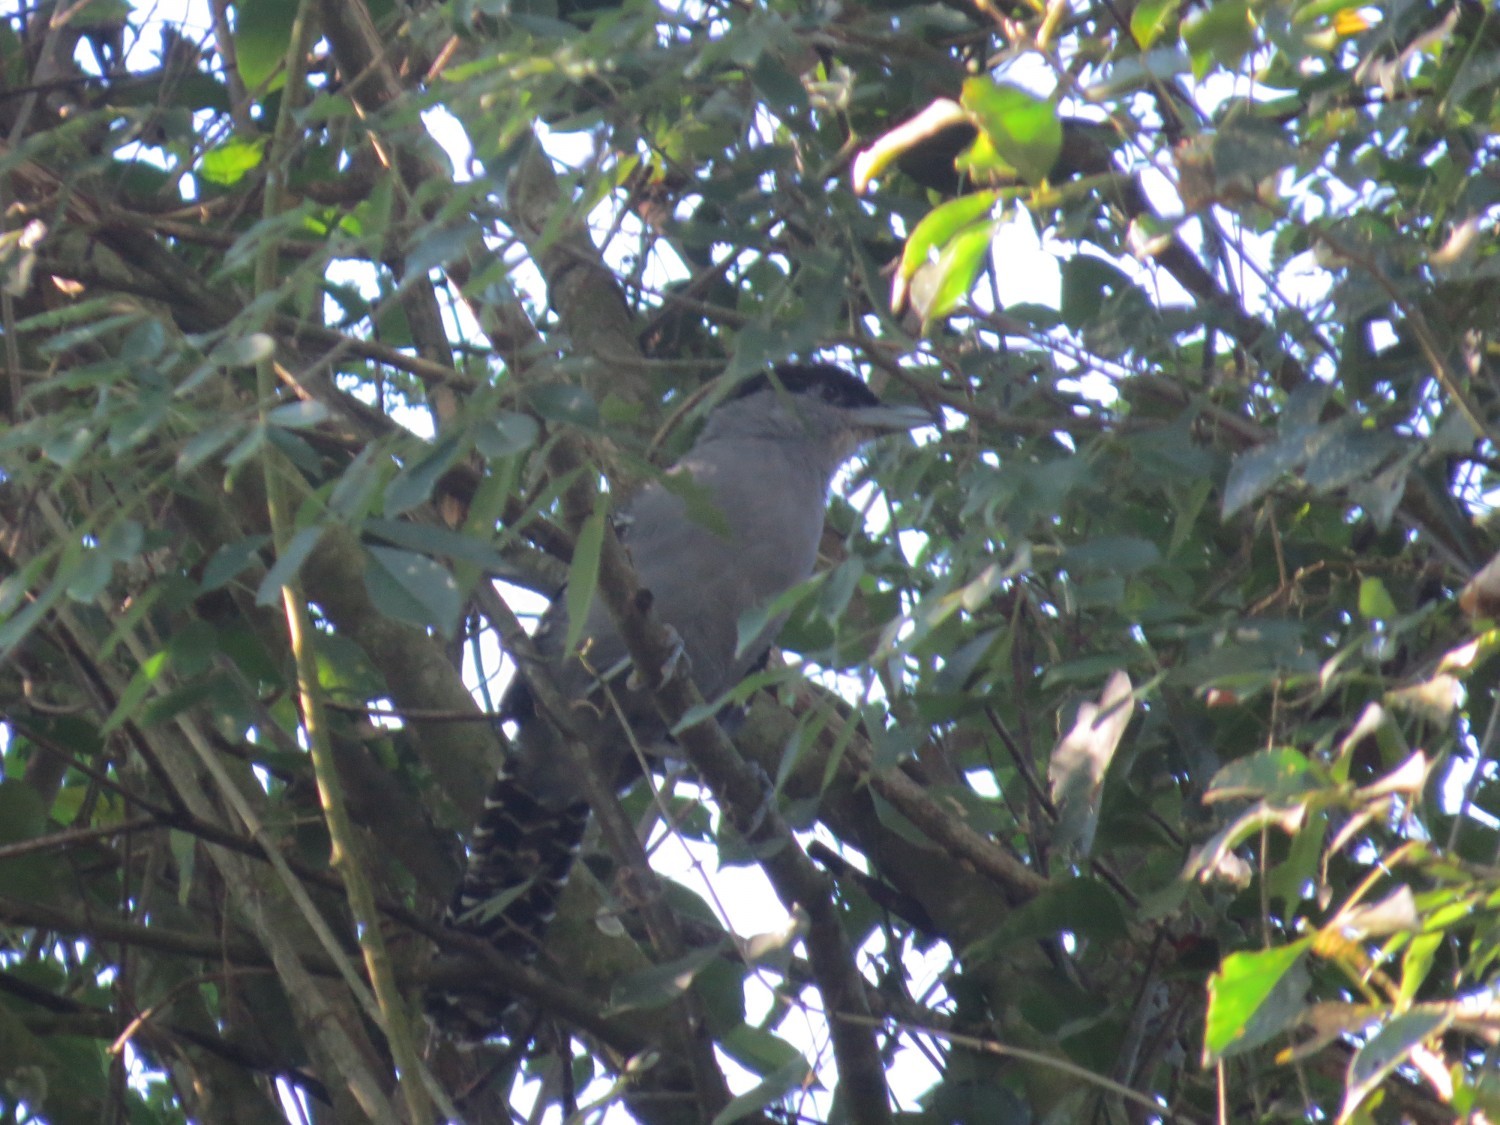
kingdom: Animalia
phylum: Chordata
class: Aves
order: Passeriformes
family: Thamnophilidae
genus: Batara
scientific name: Batara cinerea
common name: Giant antshrike
